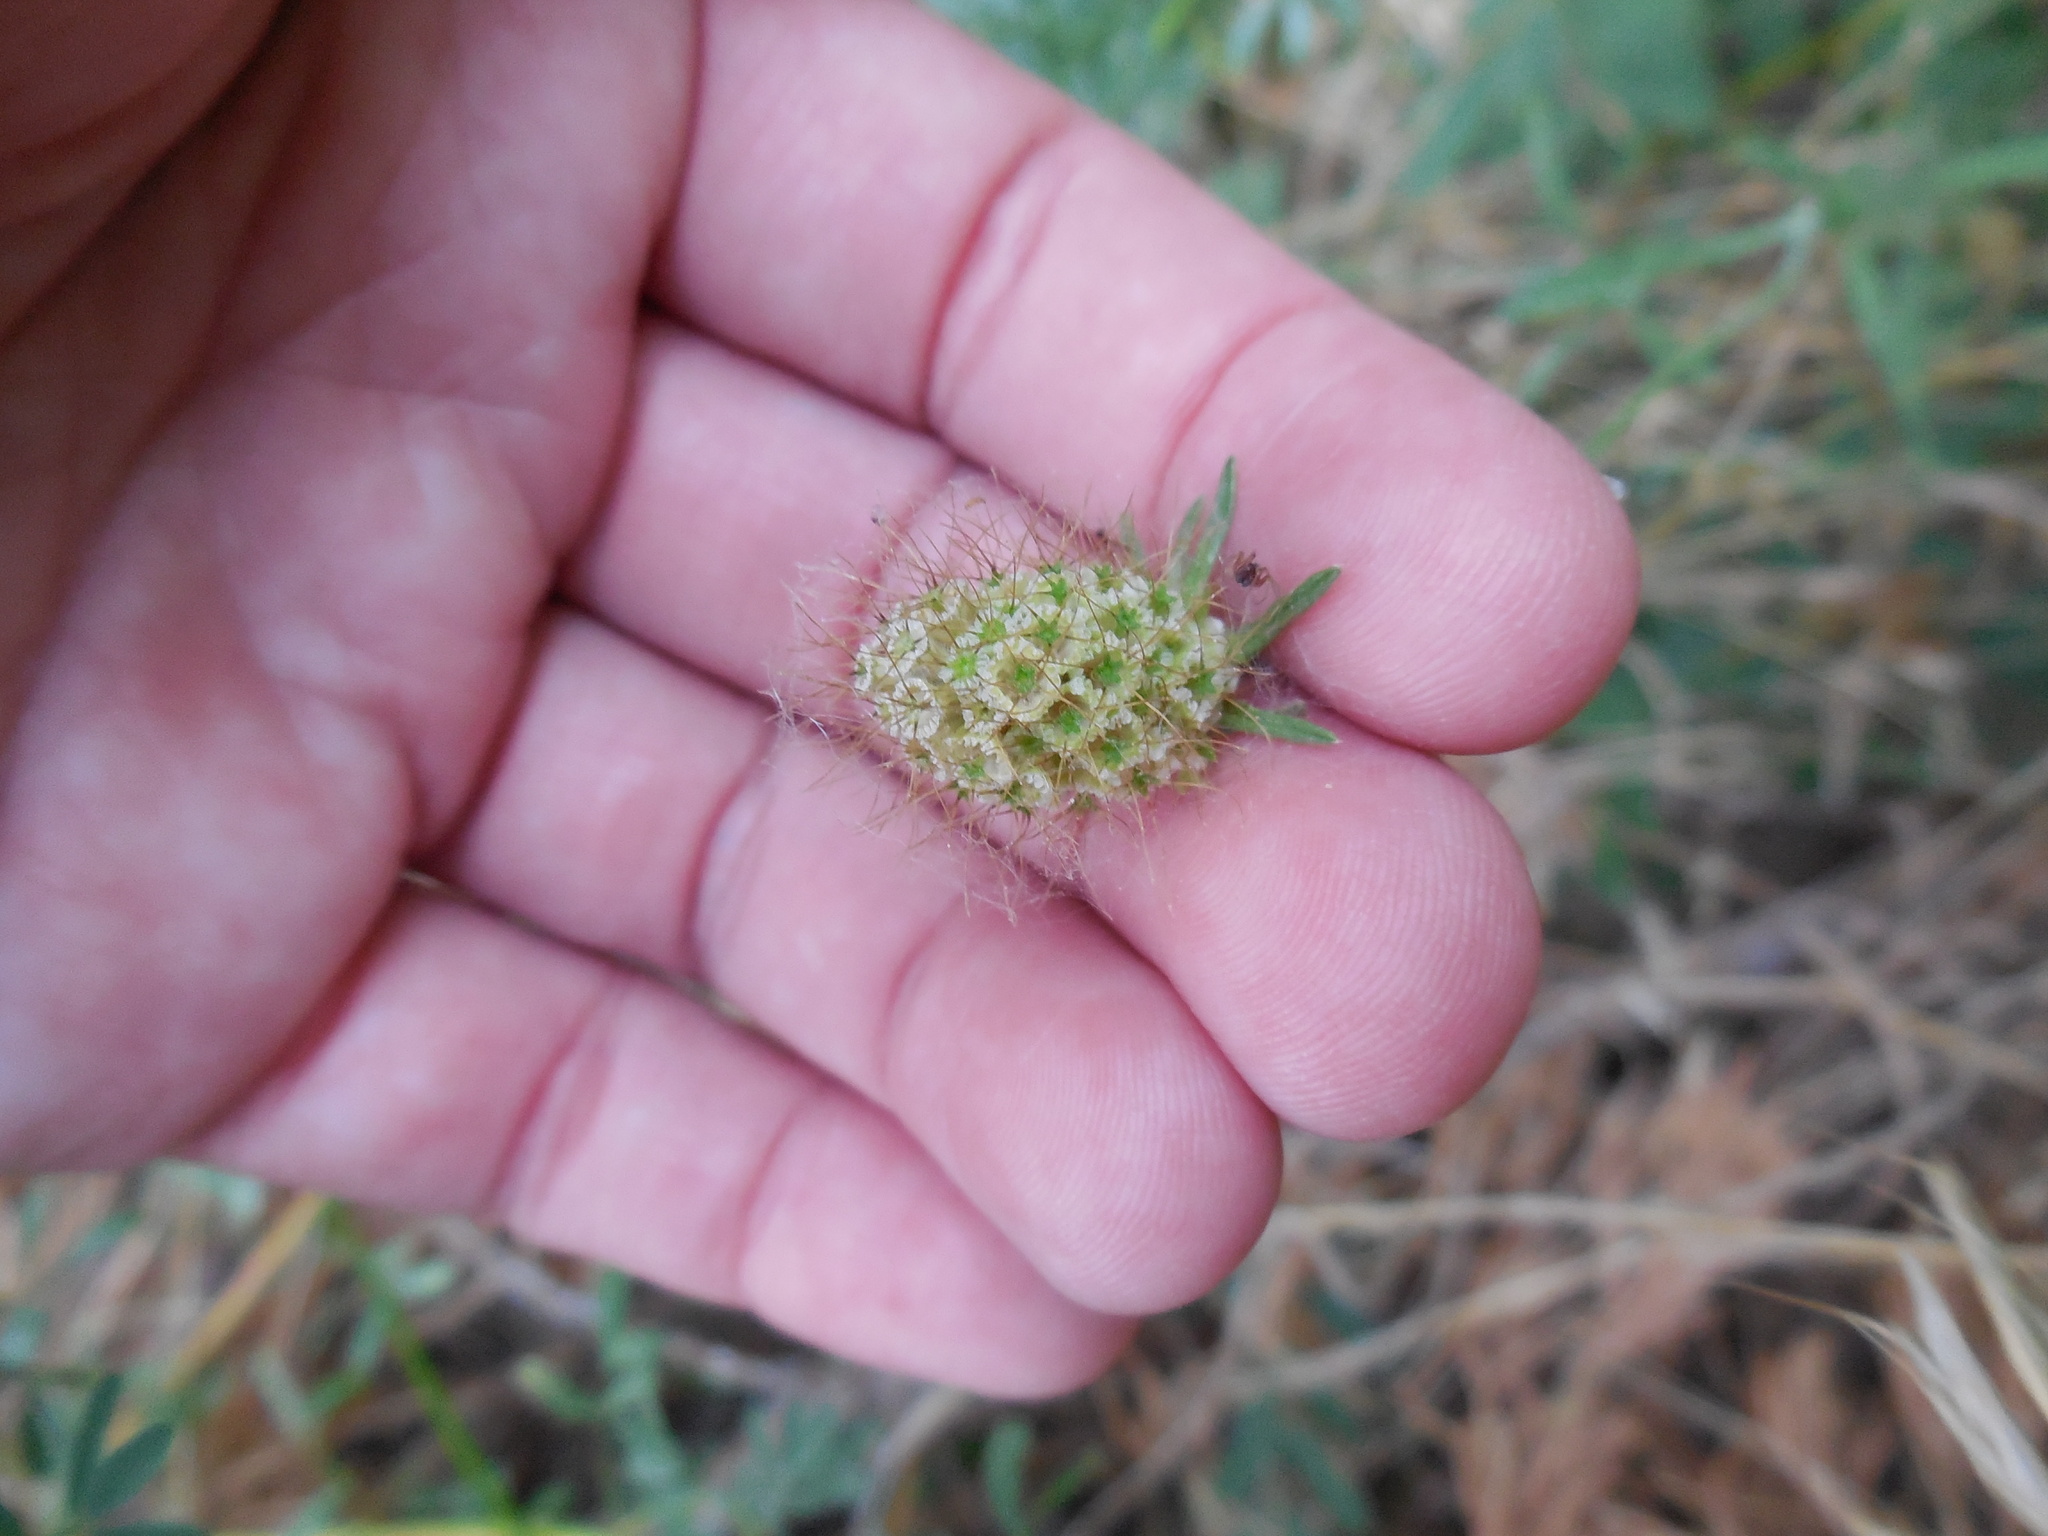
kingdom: Plantae
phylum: Tracheophyta
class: Magnoliopsida
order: Dipsacales
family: Caprifoliaceae
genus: Sixalix
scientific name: Sixalix atropurpurea
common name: Sweet scabious
